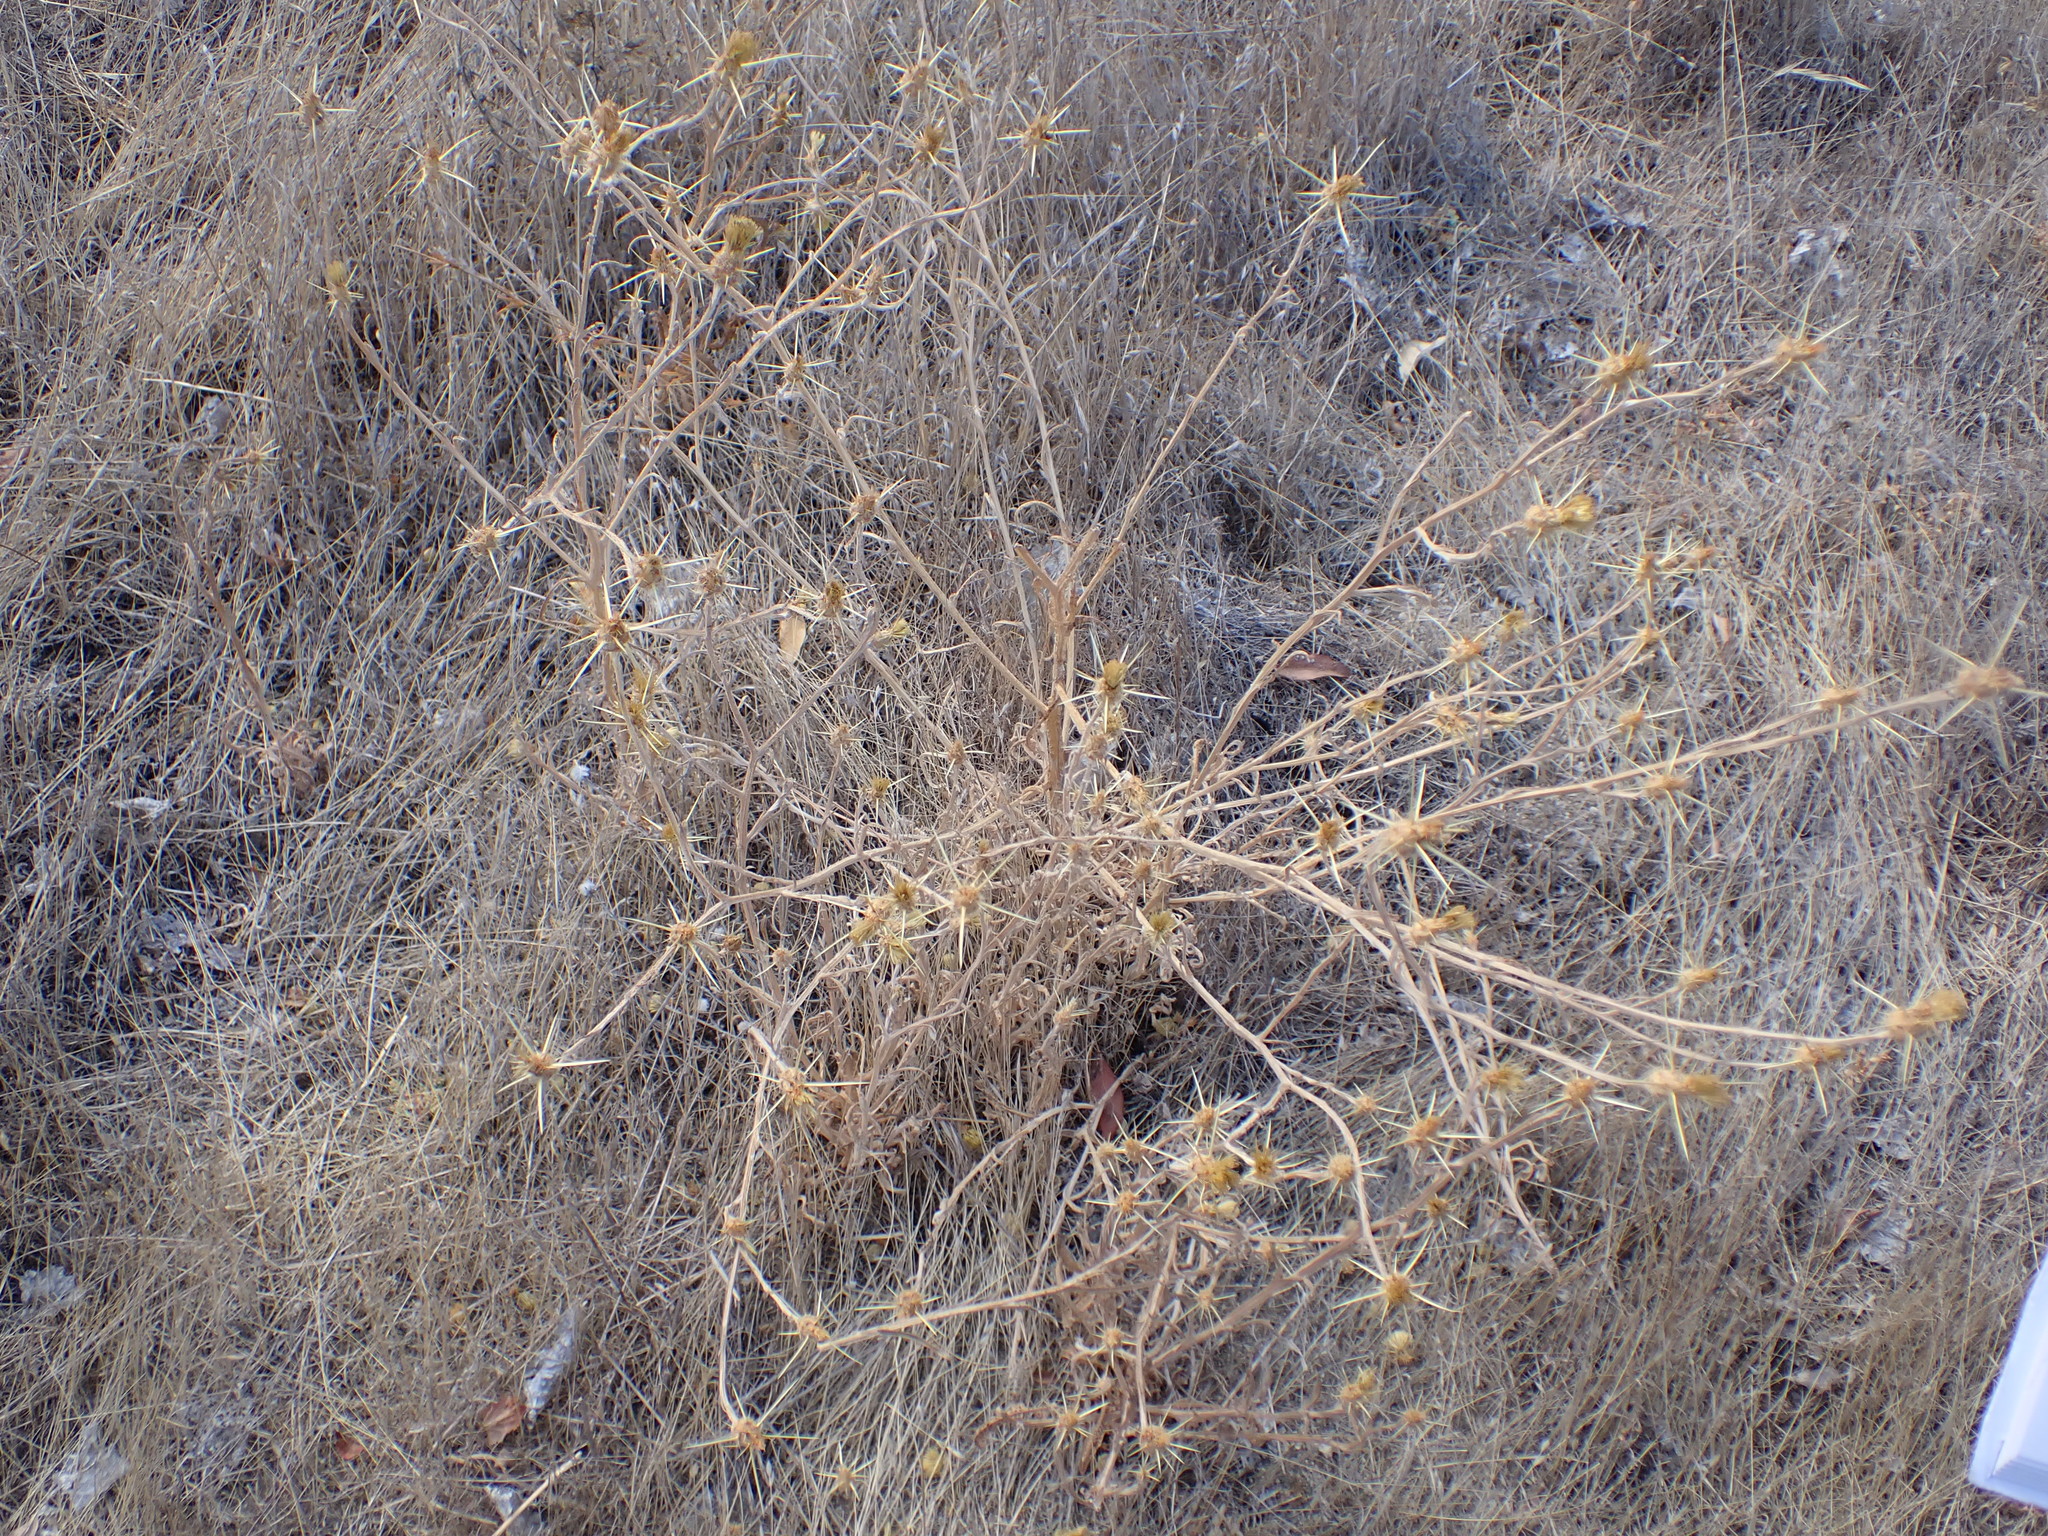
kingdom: Plantae
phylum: Tracheophyta
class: Magnoliopsida
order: Asterales
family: Asteraceae
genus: Centaurea
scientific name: Centaurea solstitialis
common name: Yellow star-thistle
